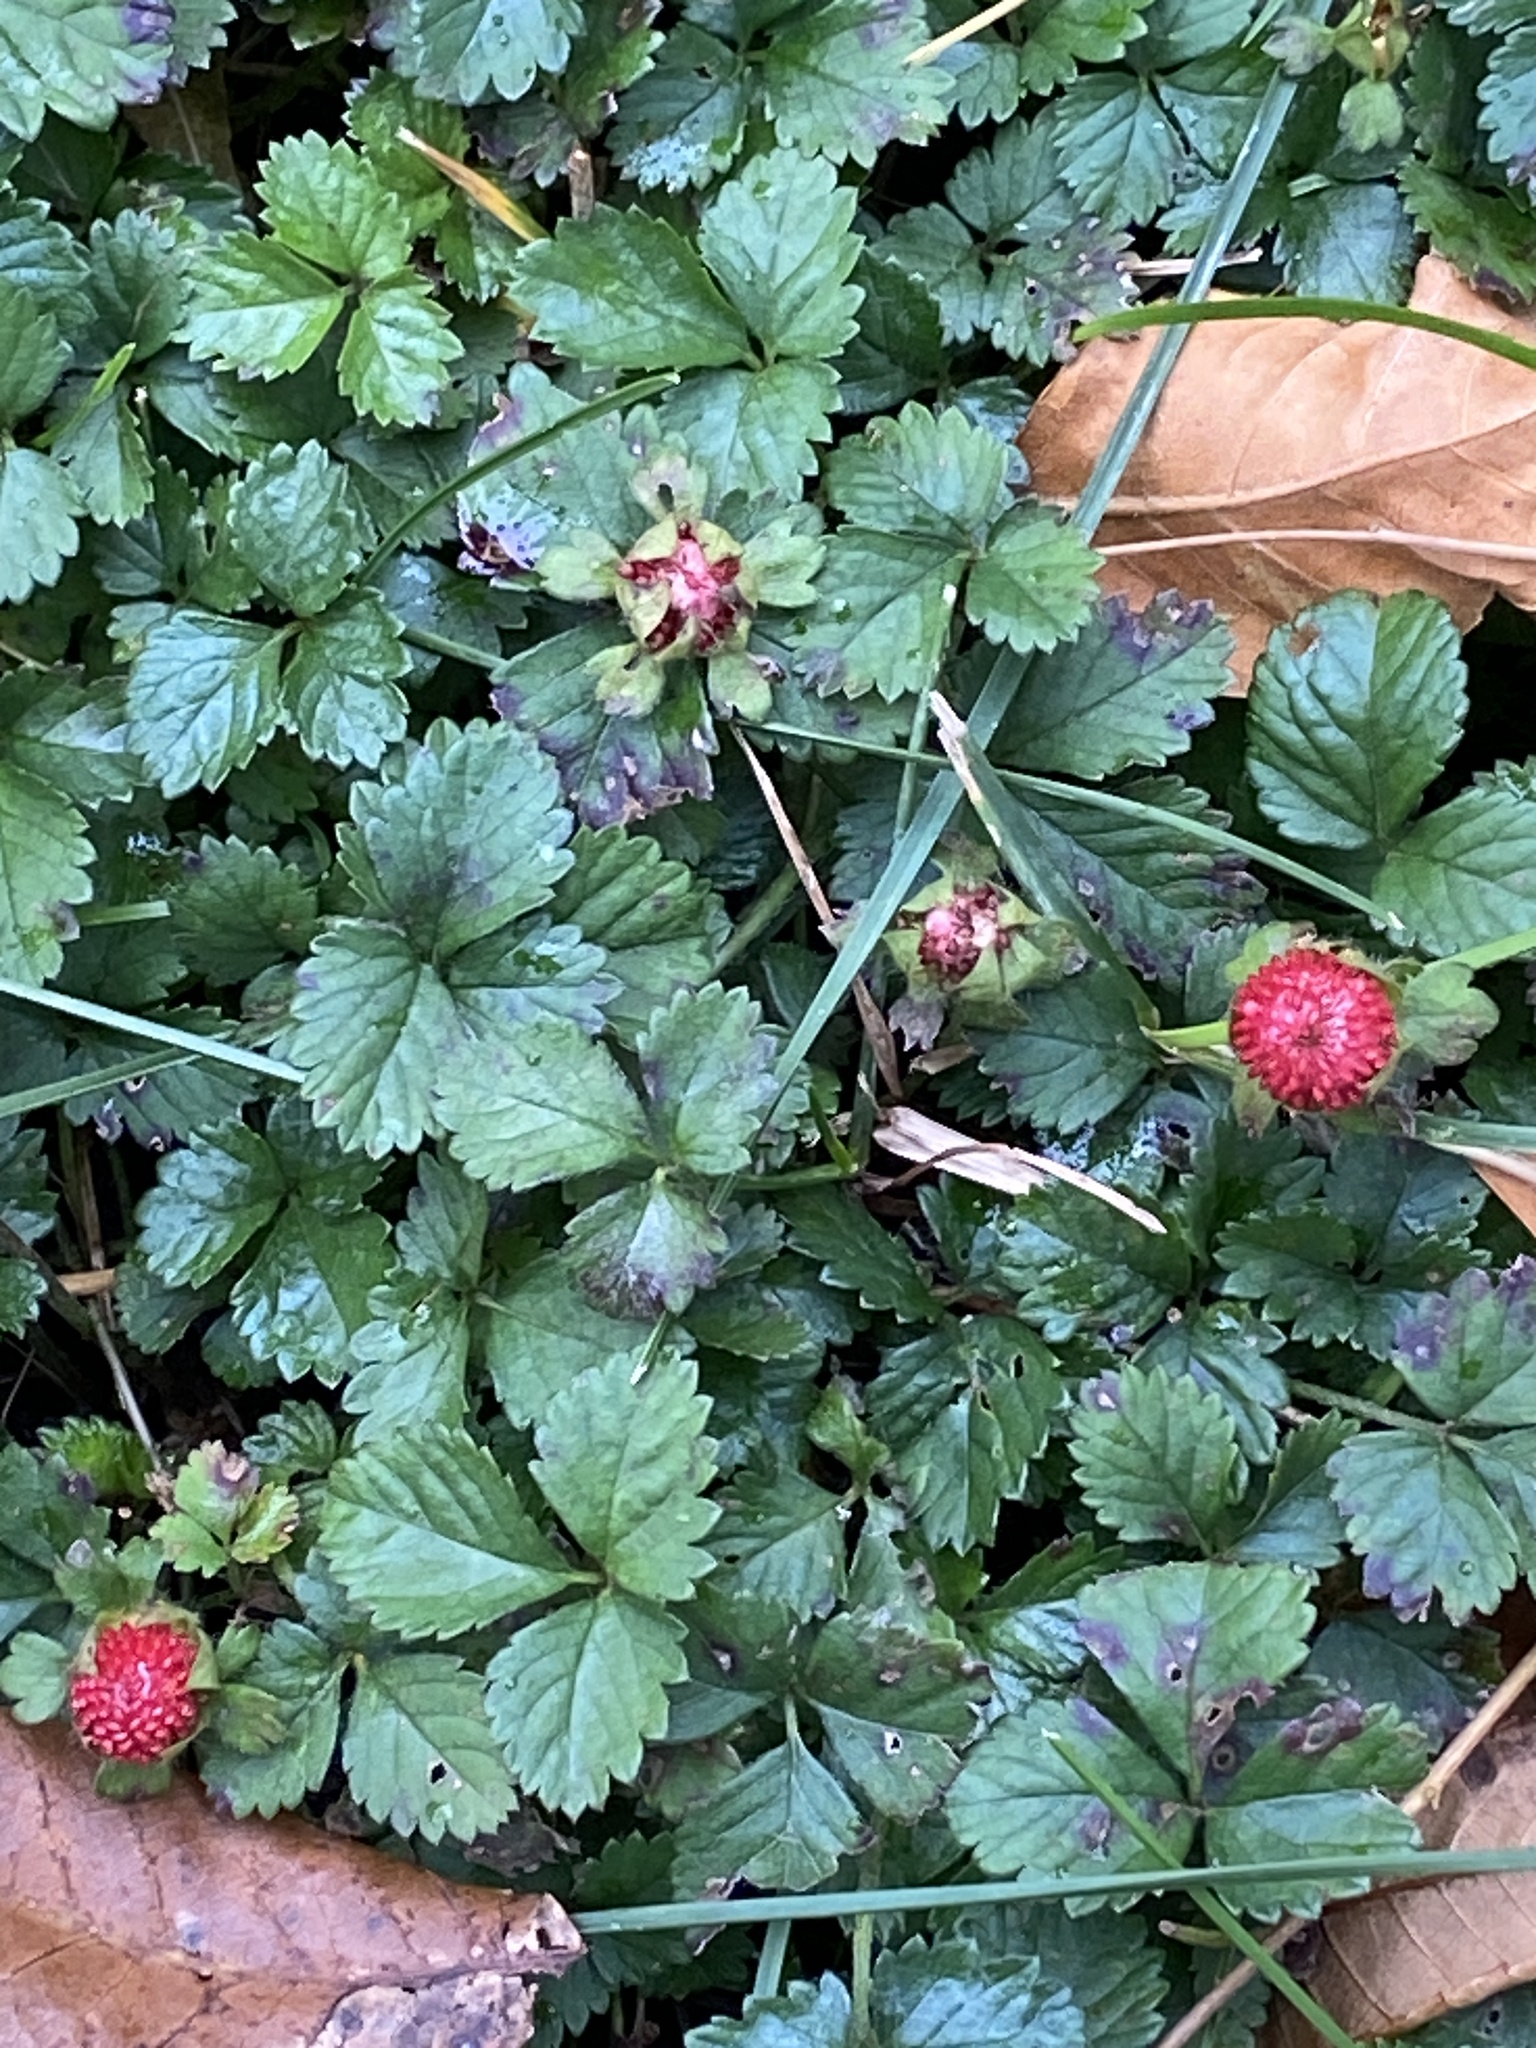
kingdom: Plantae
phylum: Tracheophyta
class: Magnoliopsida
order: Rosales
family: Rosaceae
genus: Potentilla
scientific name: Potentilla indica
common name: Yellow-flowered strawberry
